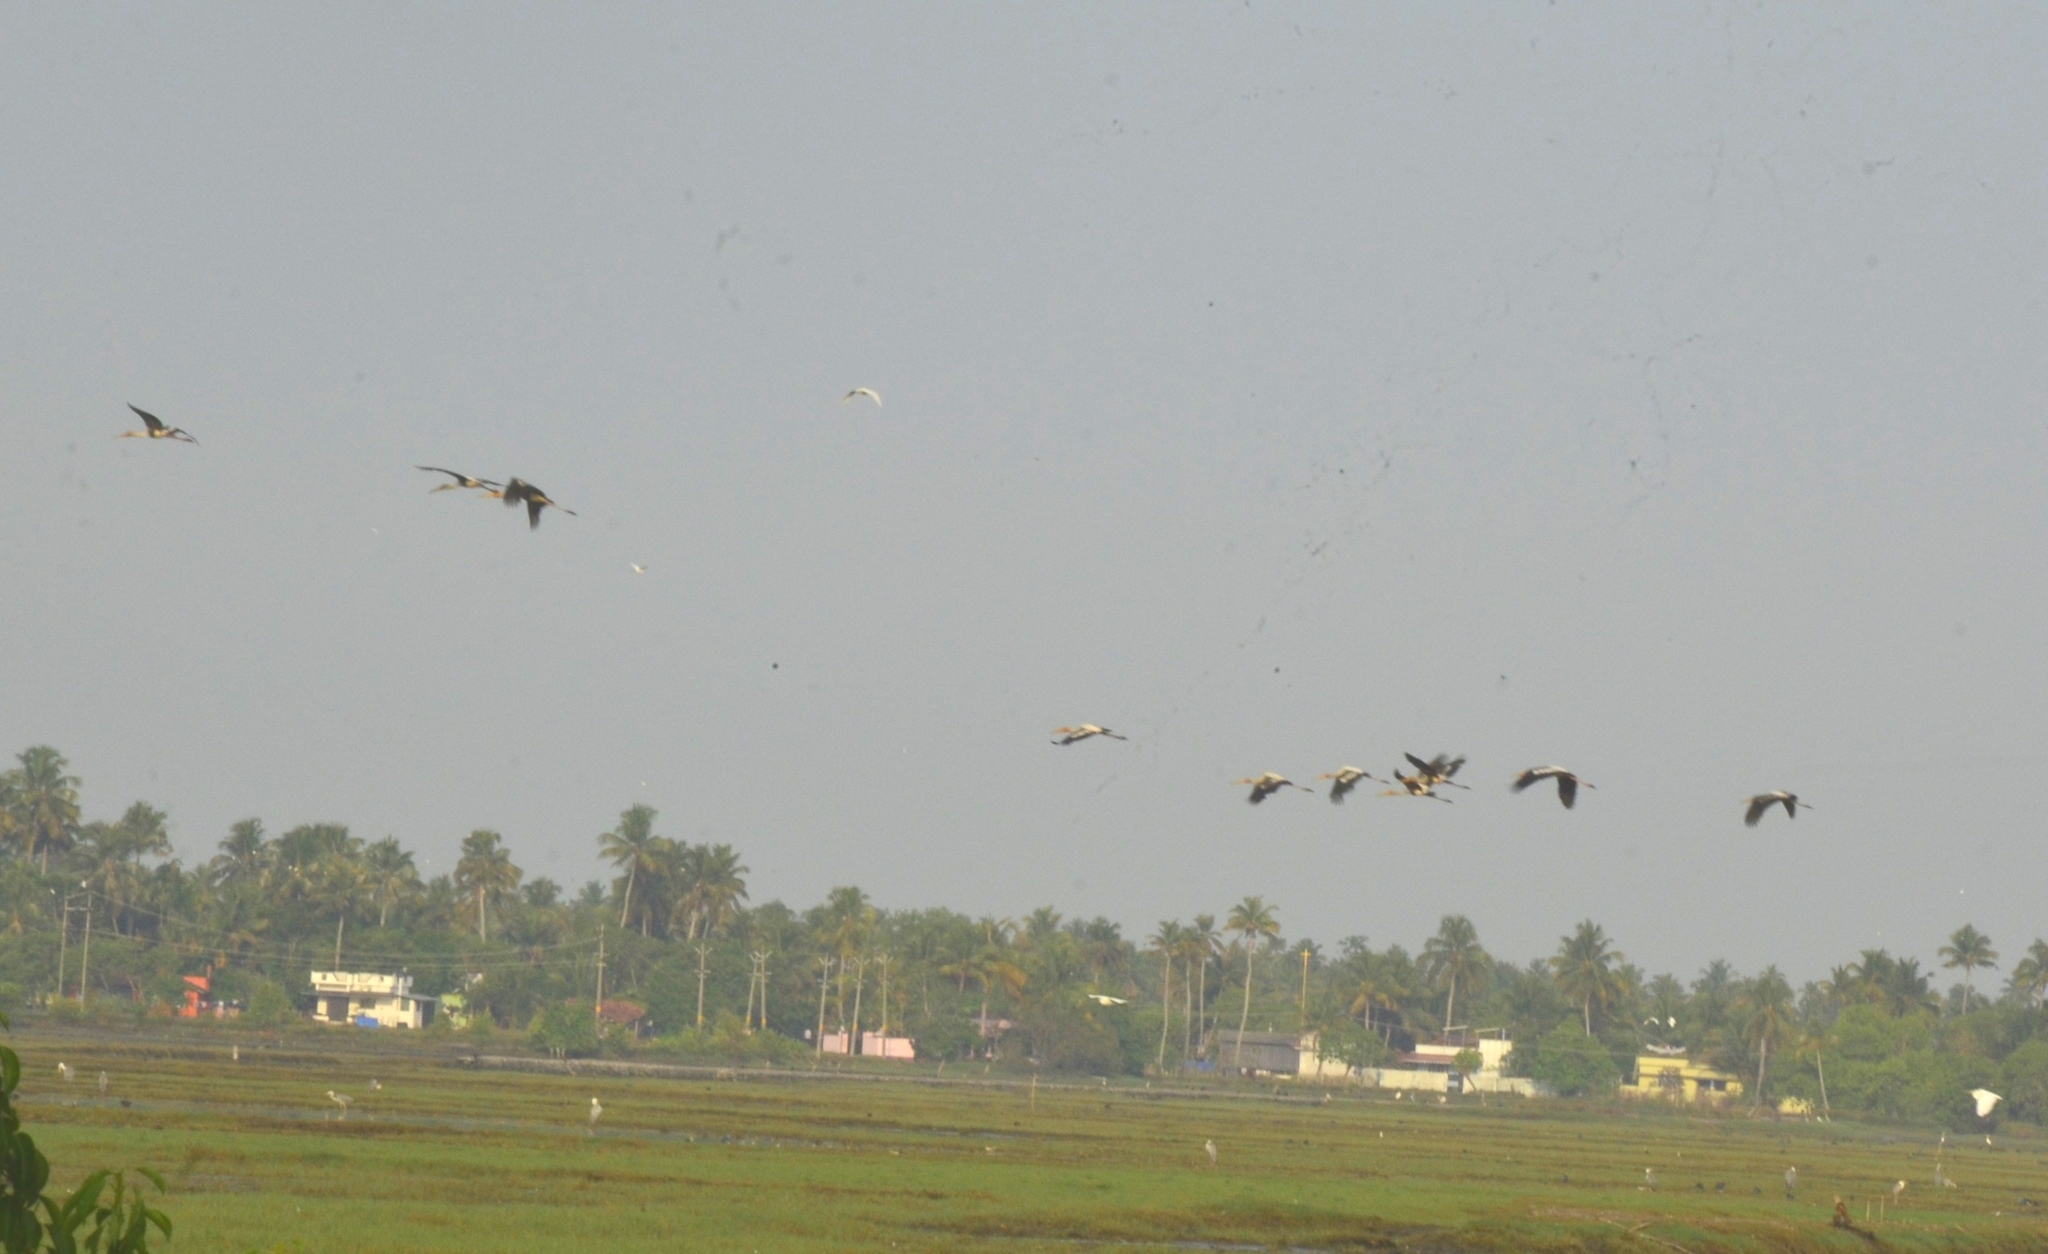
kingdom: Animalia
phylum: Chordata
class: Aves
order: Ciconiiformes
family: Ciconiidae
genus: Mycteria
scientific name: Mycteria leucocephala
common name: Painted stork
